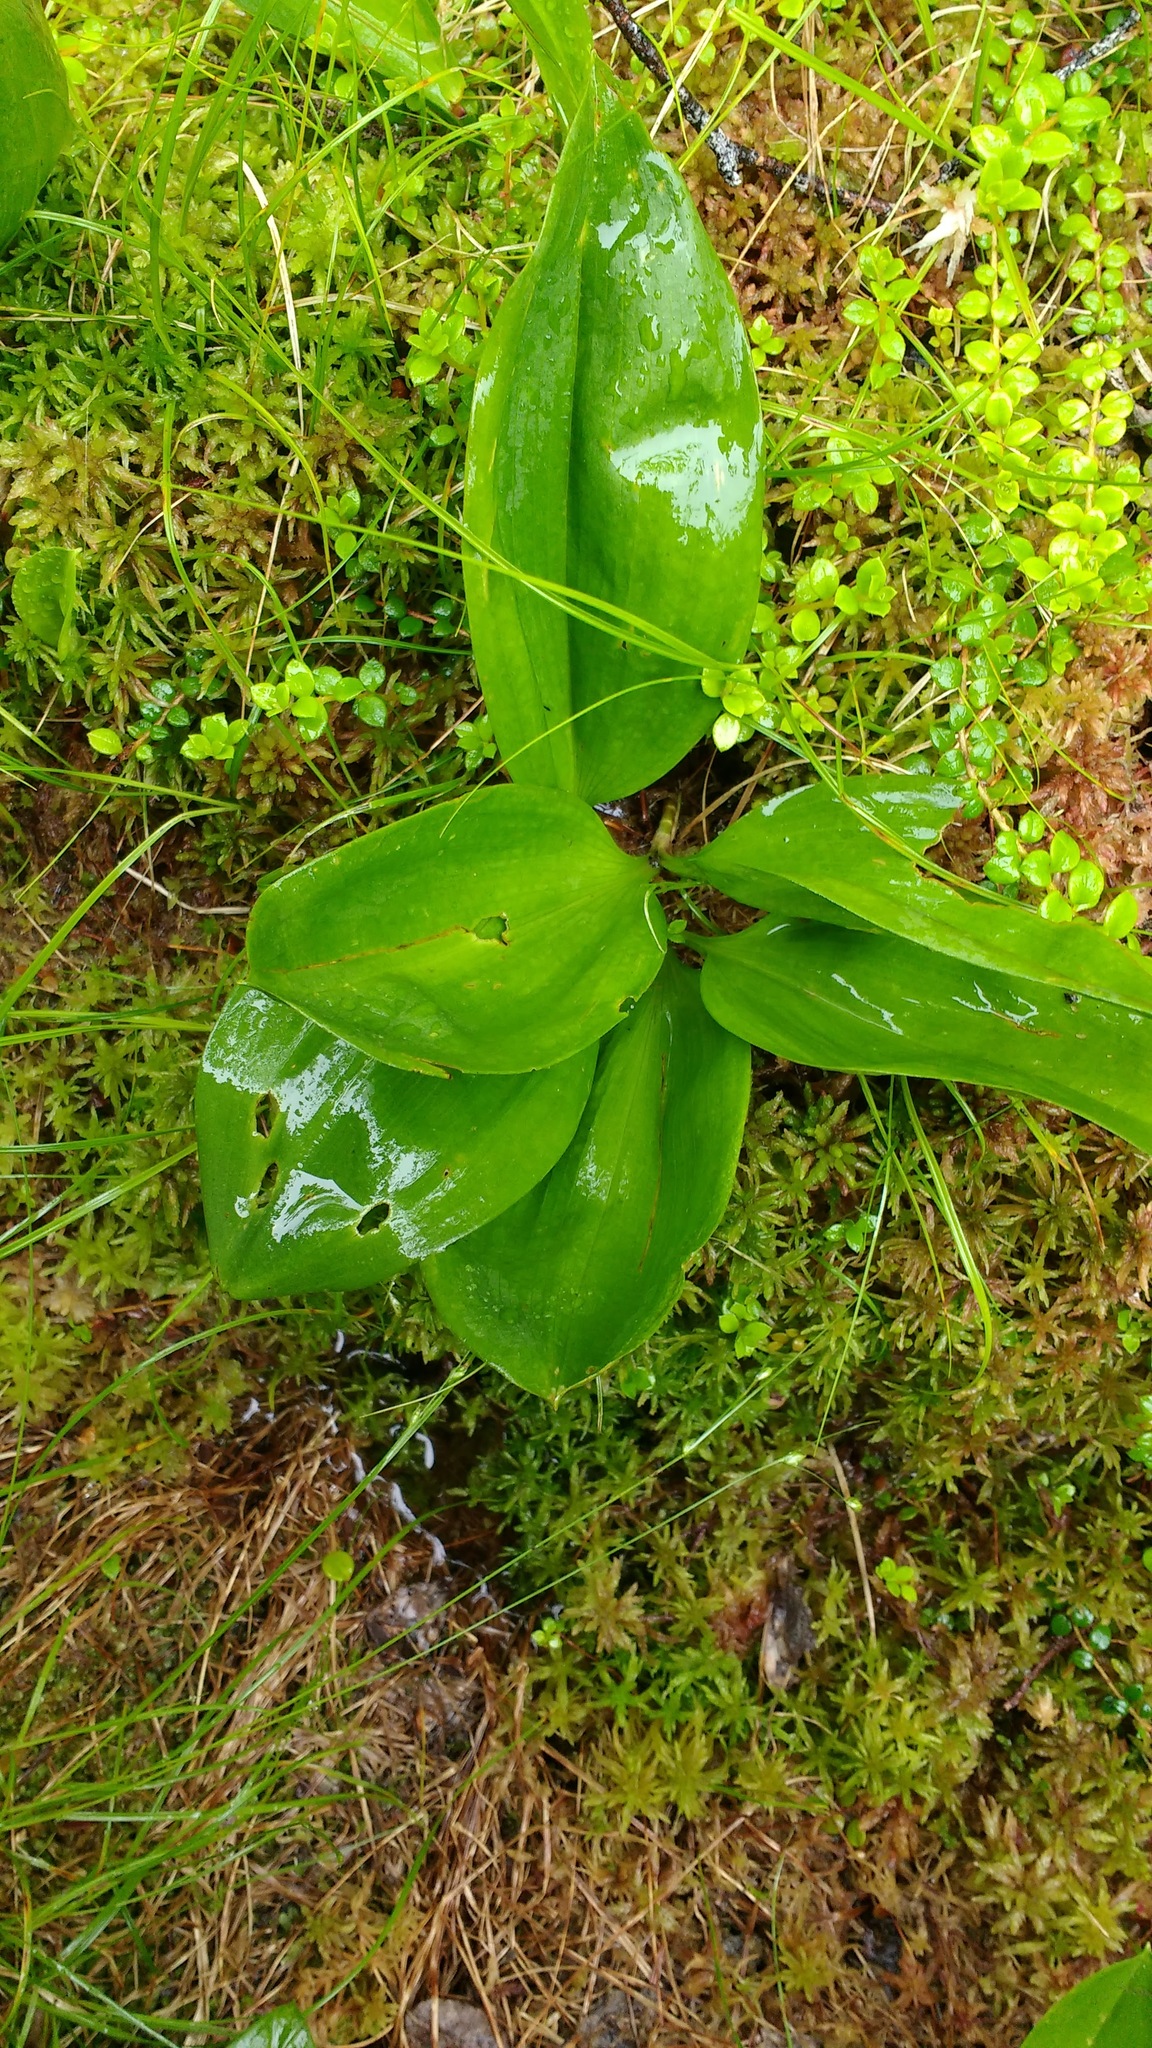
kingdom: Plantae
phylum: Tracheophyta
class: Liliopsida
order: Asparagales
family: Asparagaceae
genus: Maianthemum
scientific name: Maianthemum trifolium
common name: Swamp false solomon's seal
